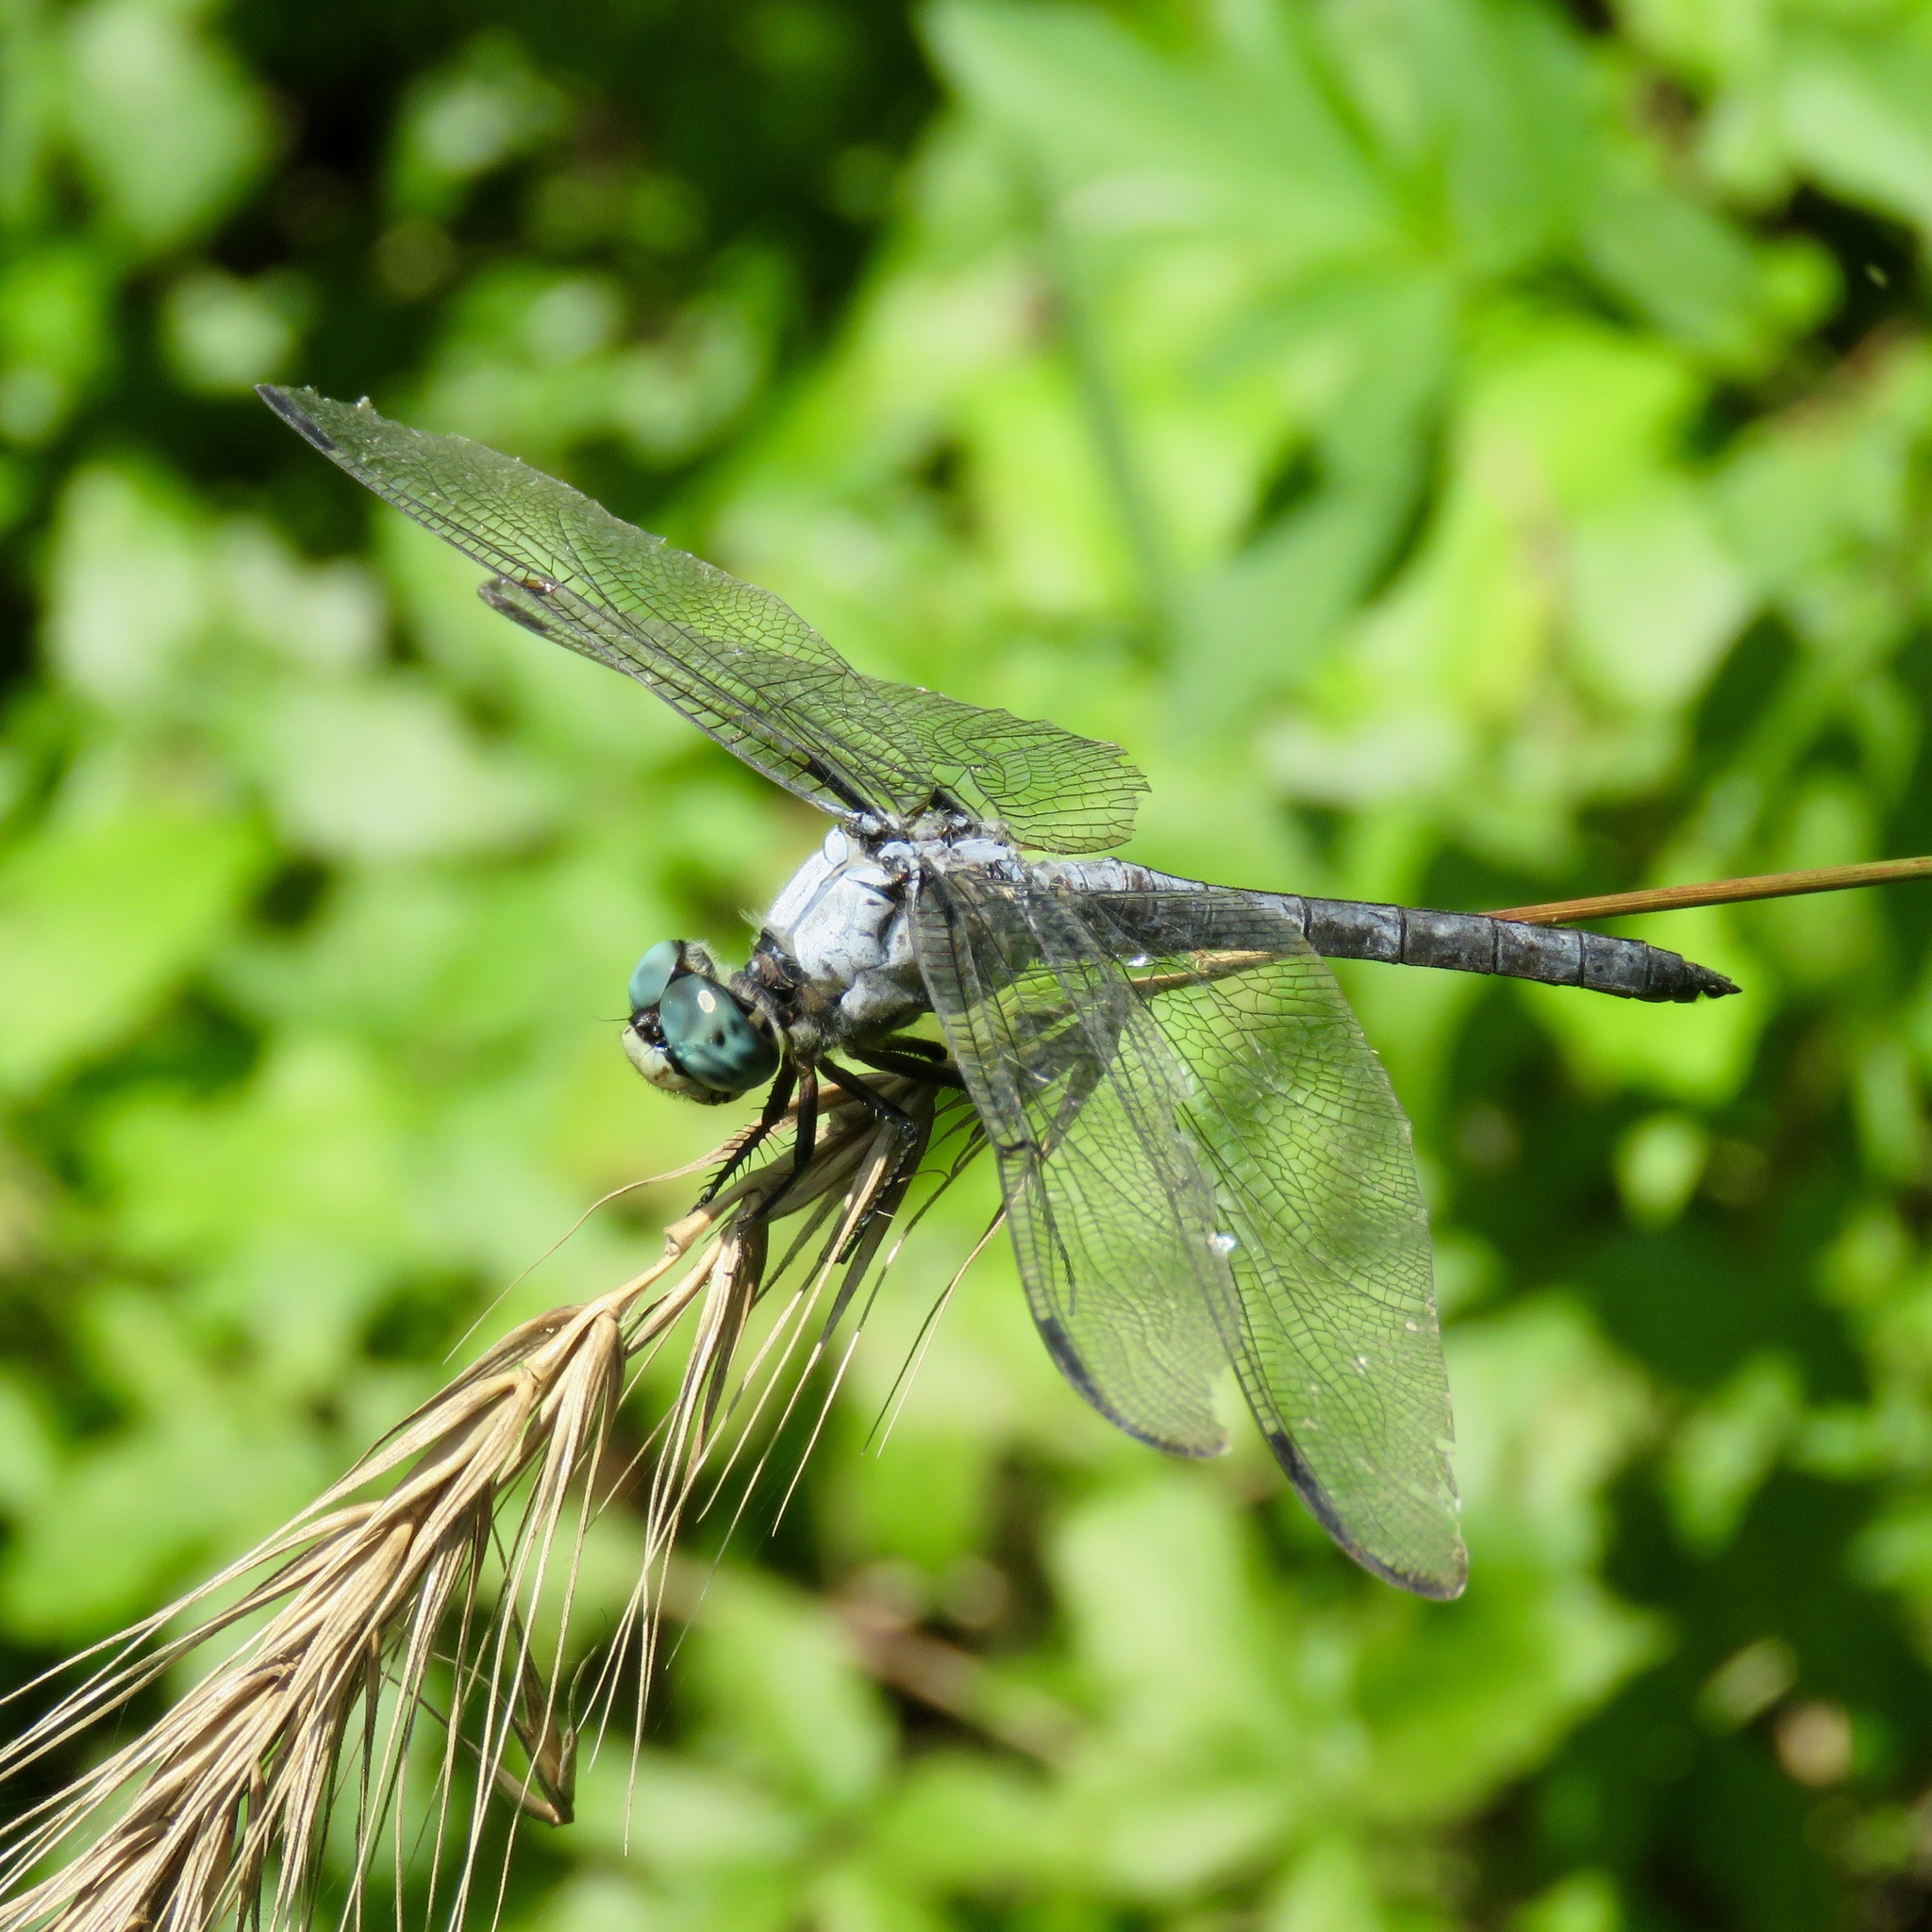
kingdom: Animalia
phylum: Arthropoda
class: Insecta
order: Odonata
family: Libellulidae
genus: Libellula
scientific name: Libellula vibrans
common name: Great blue skimmer
